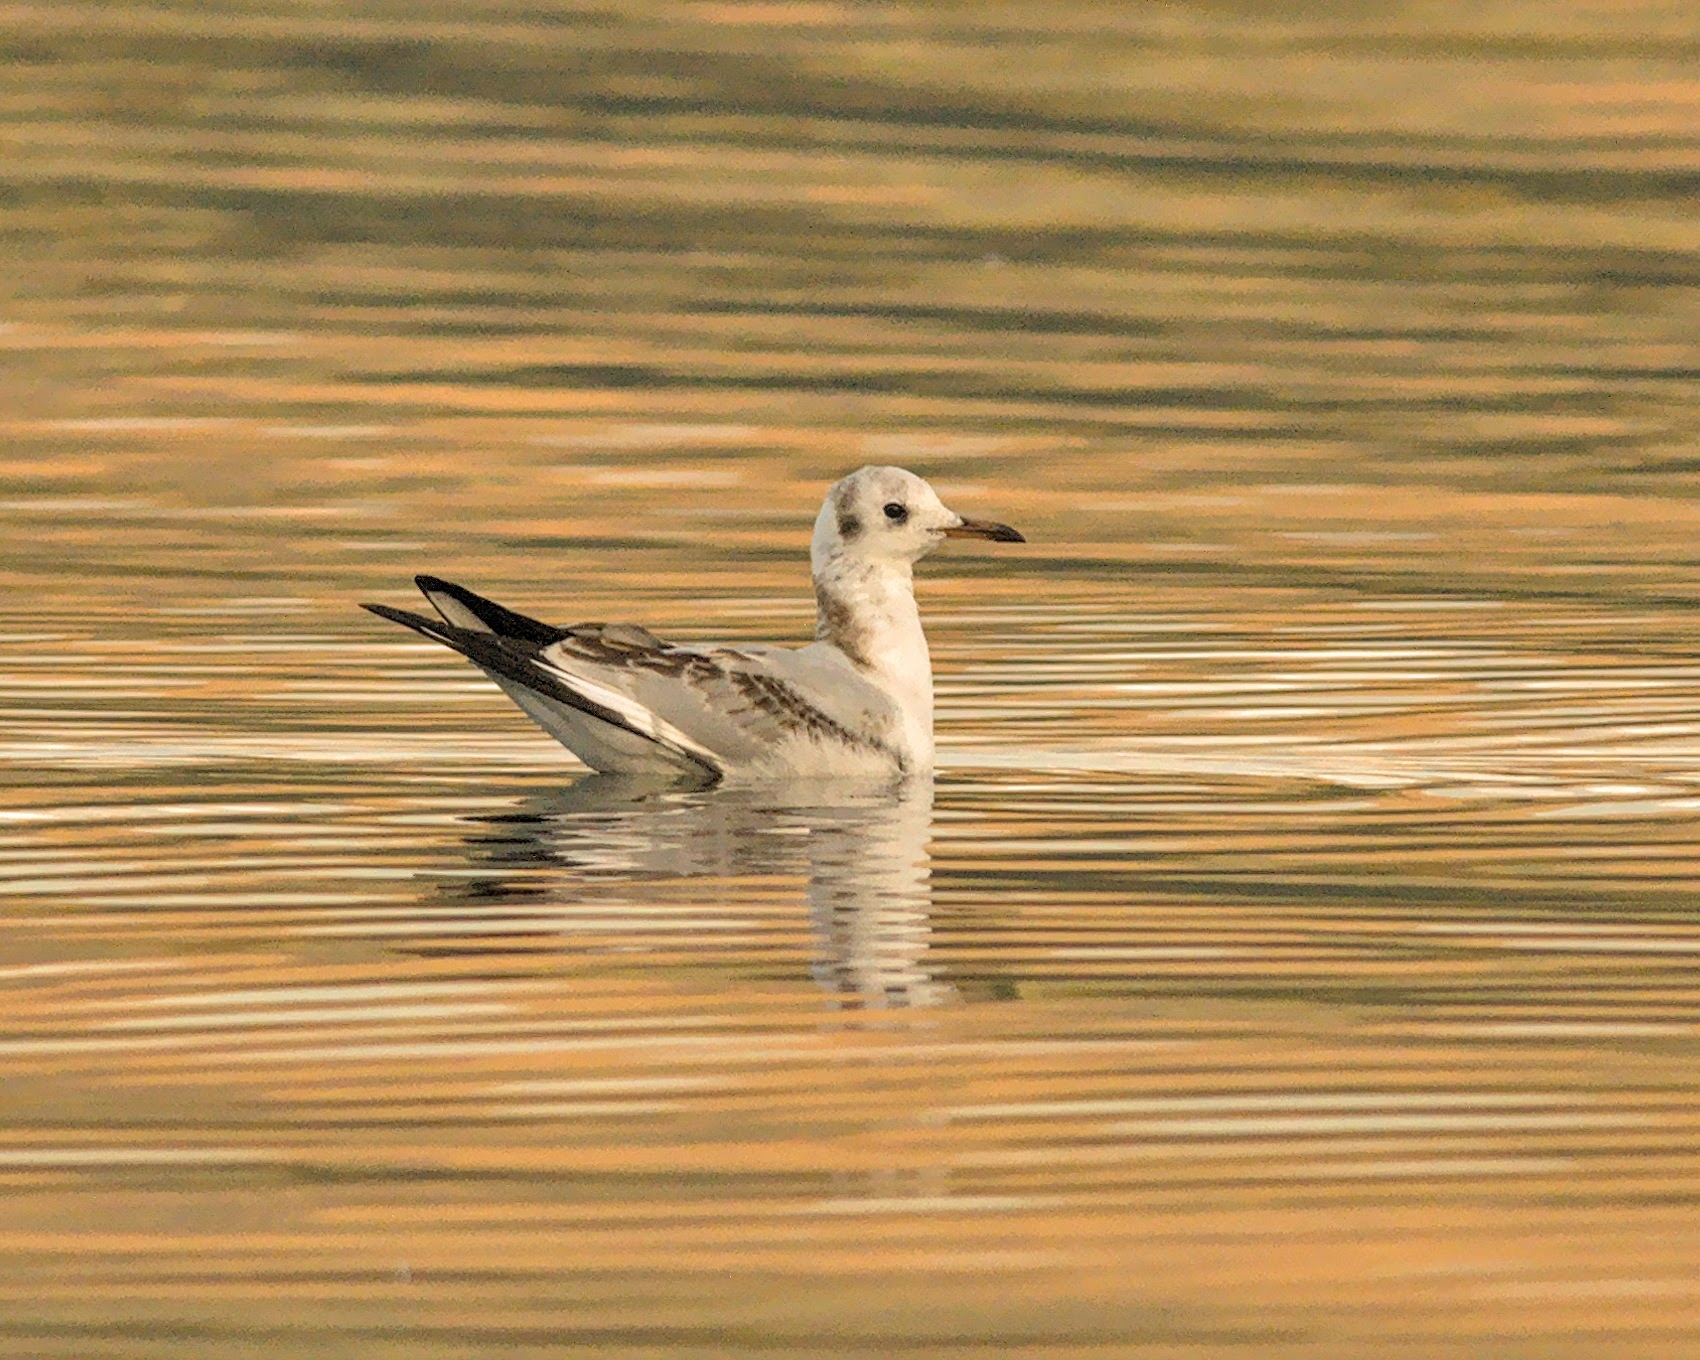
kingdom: Animalia
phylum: Chordata
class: Aves
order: Charadriiformes
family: Laridae
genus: Chroicocephalus
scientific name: Chroicocephalus ridibundus
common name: Black-headed gull
